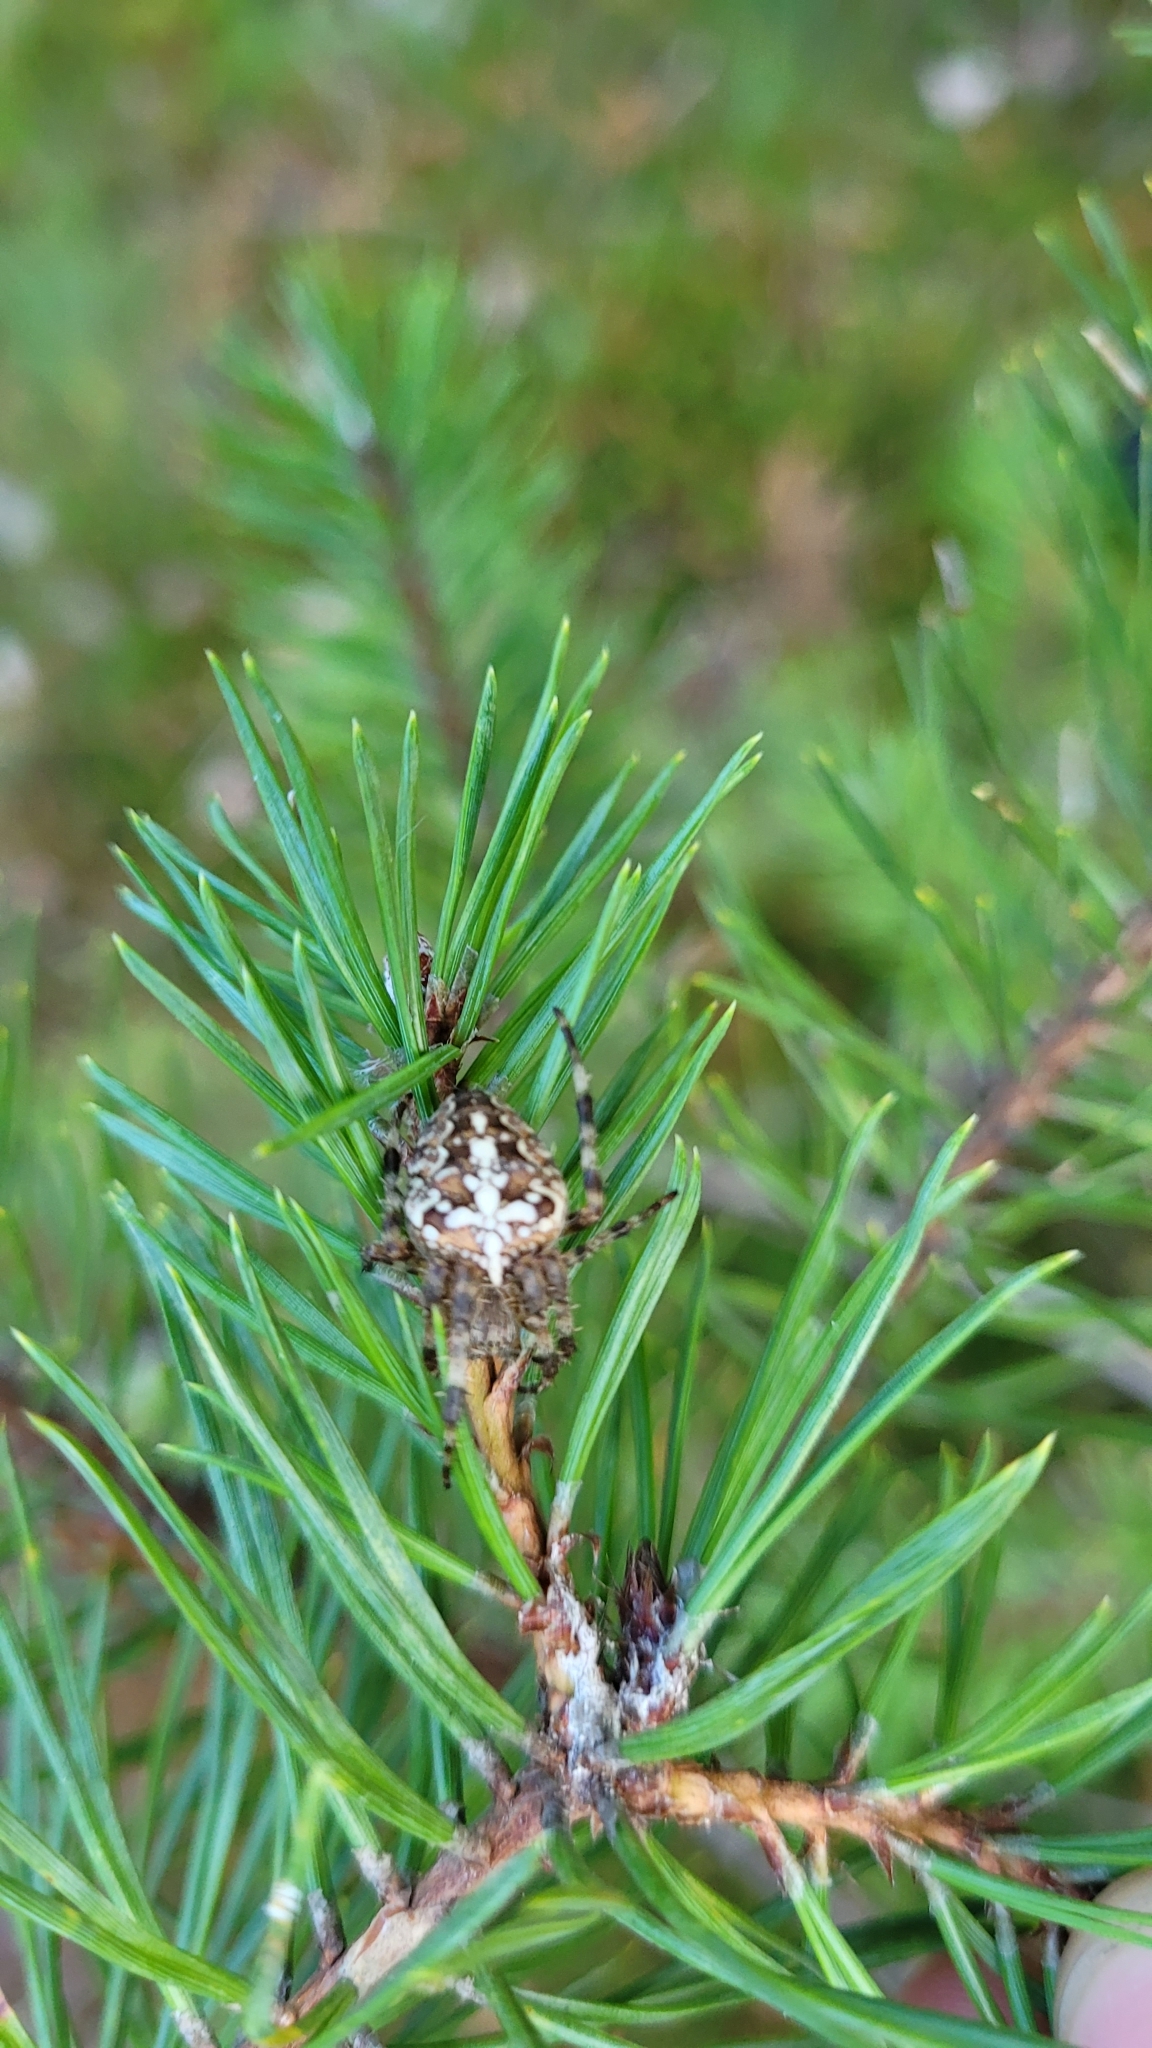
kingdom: Animalia
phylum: Arthropoda
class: Arachnida
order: Araneae
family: Araneidae
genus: Araneus
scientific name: Araneus diadematus
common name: Cross orbweaver
